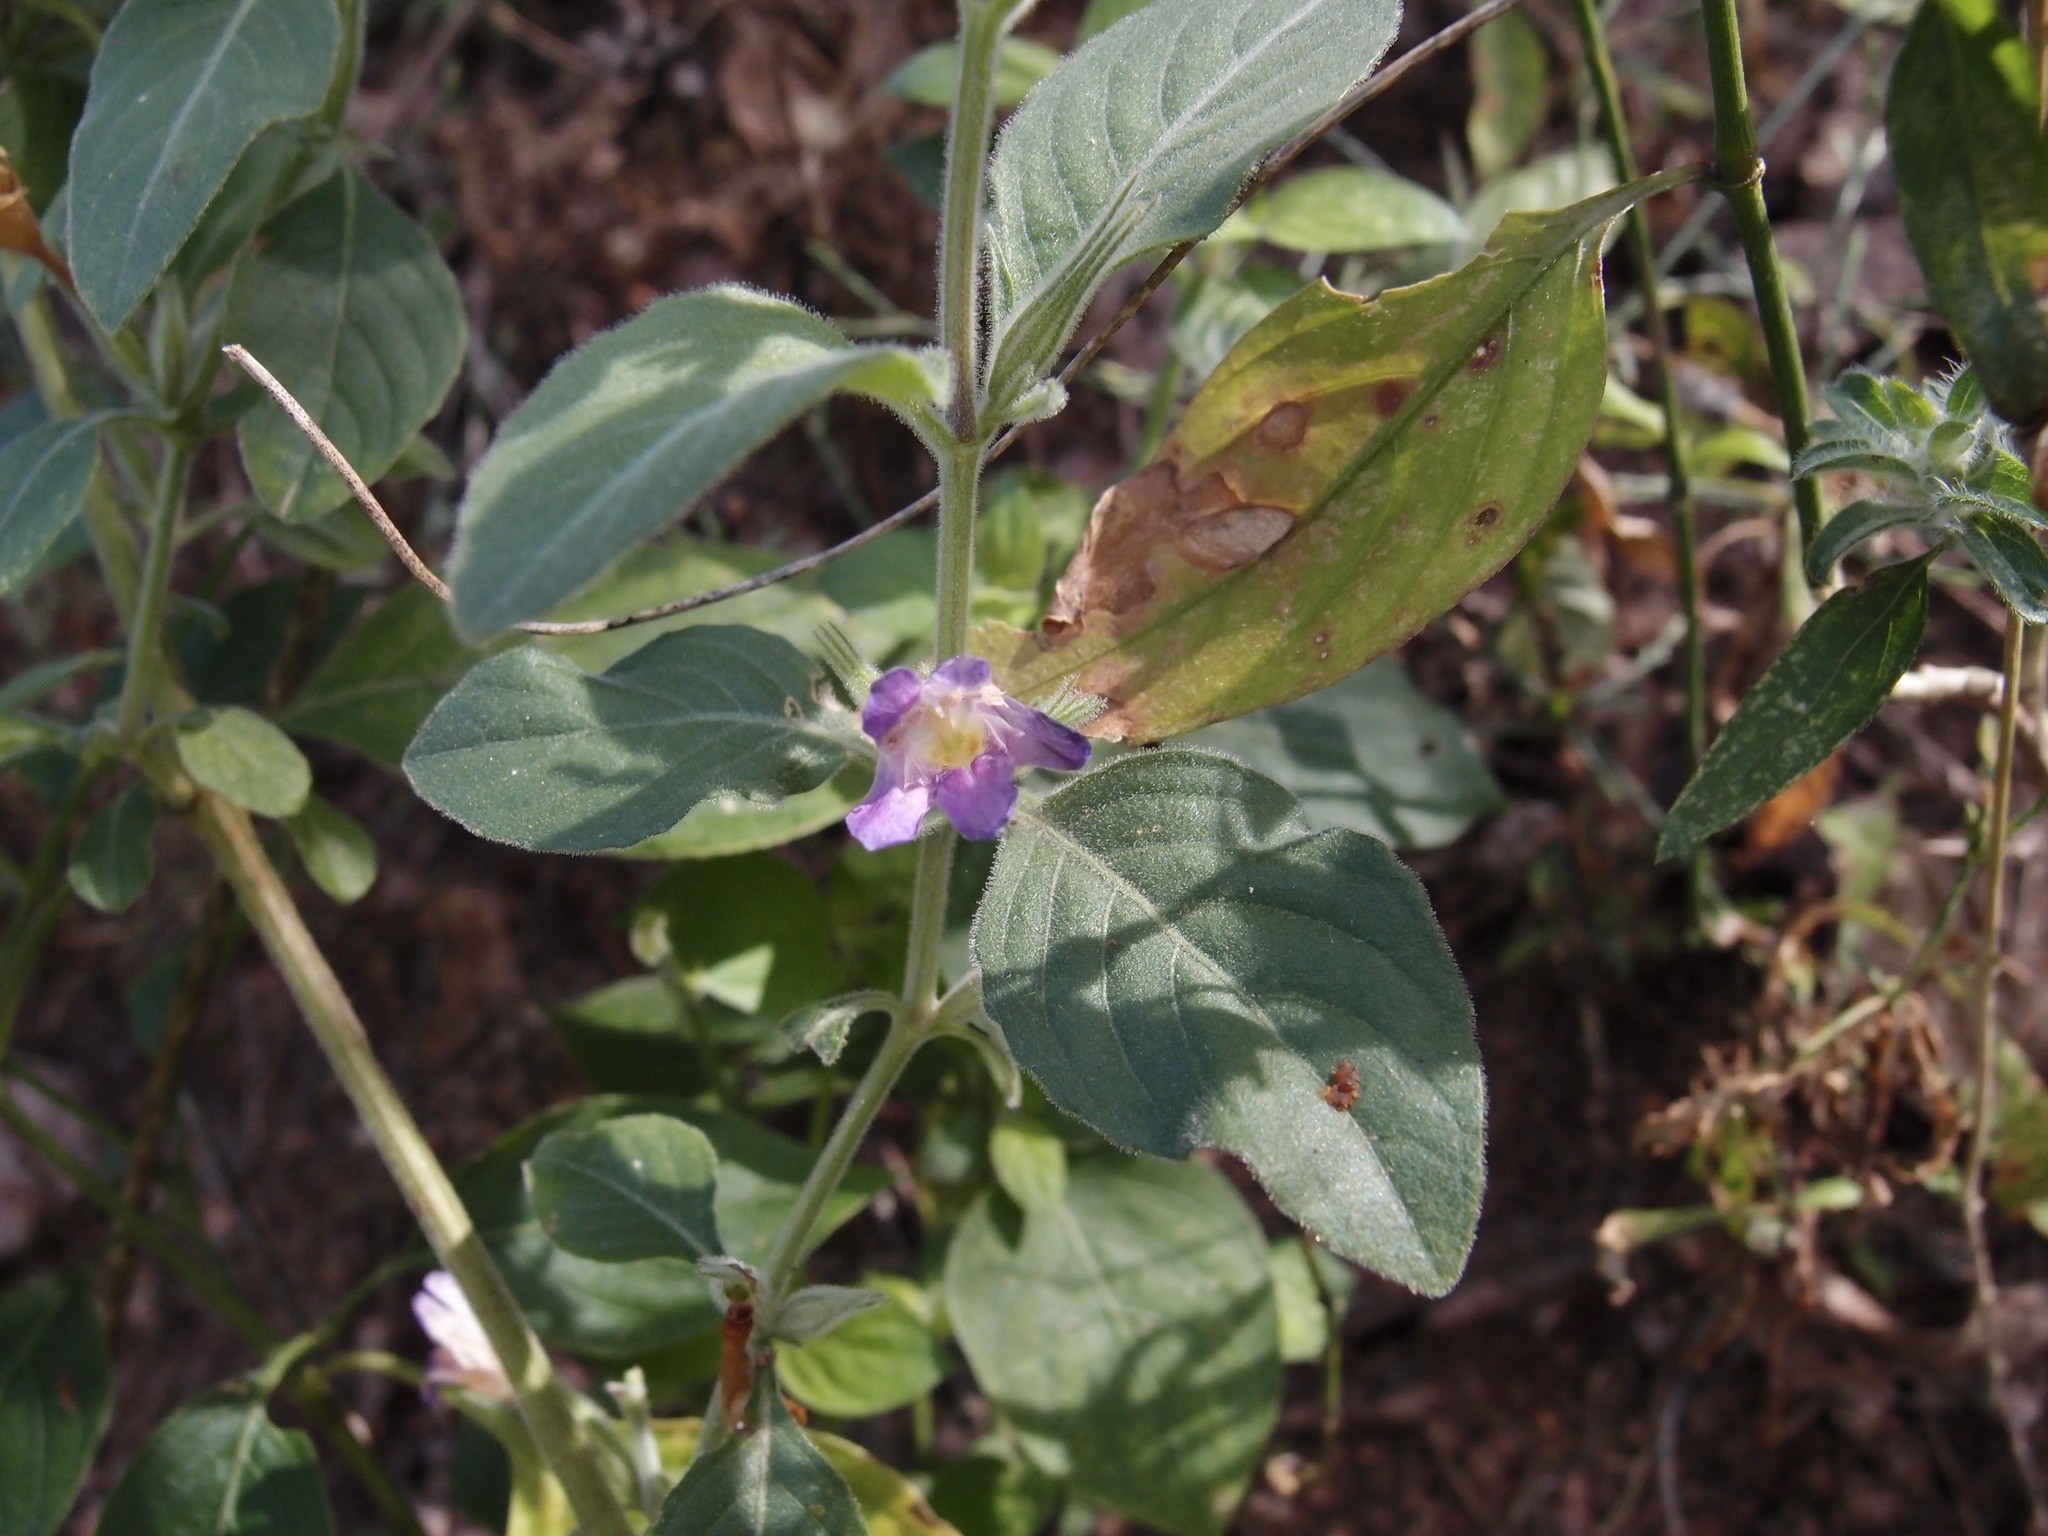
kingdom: Plantae
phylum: Tracheophyta
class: Magnoliopsida
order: Lamiales
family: Acanthaceae
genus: Ruellia
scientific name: Ruellia inundata
